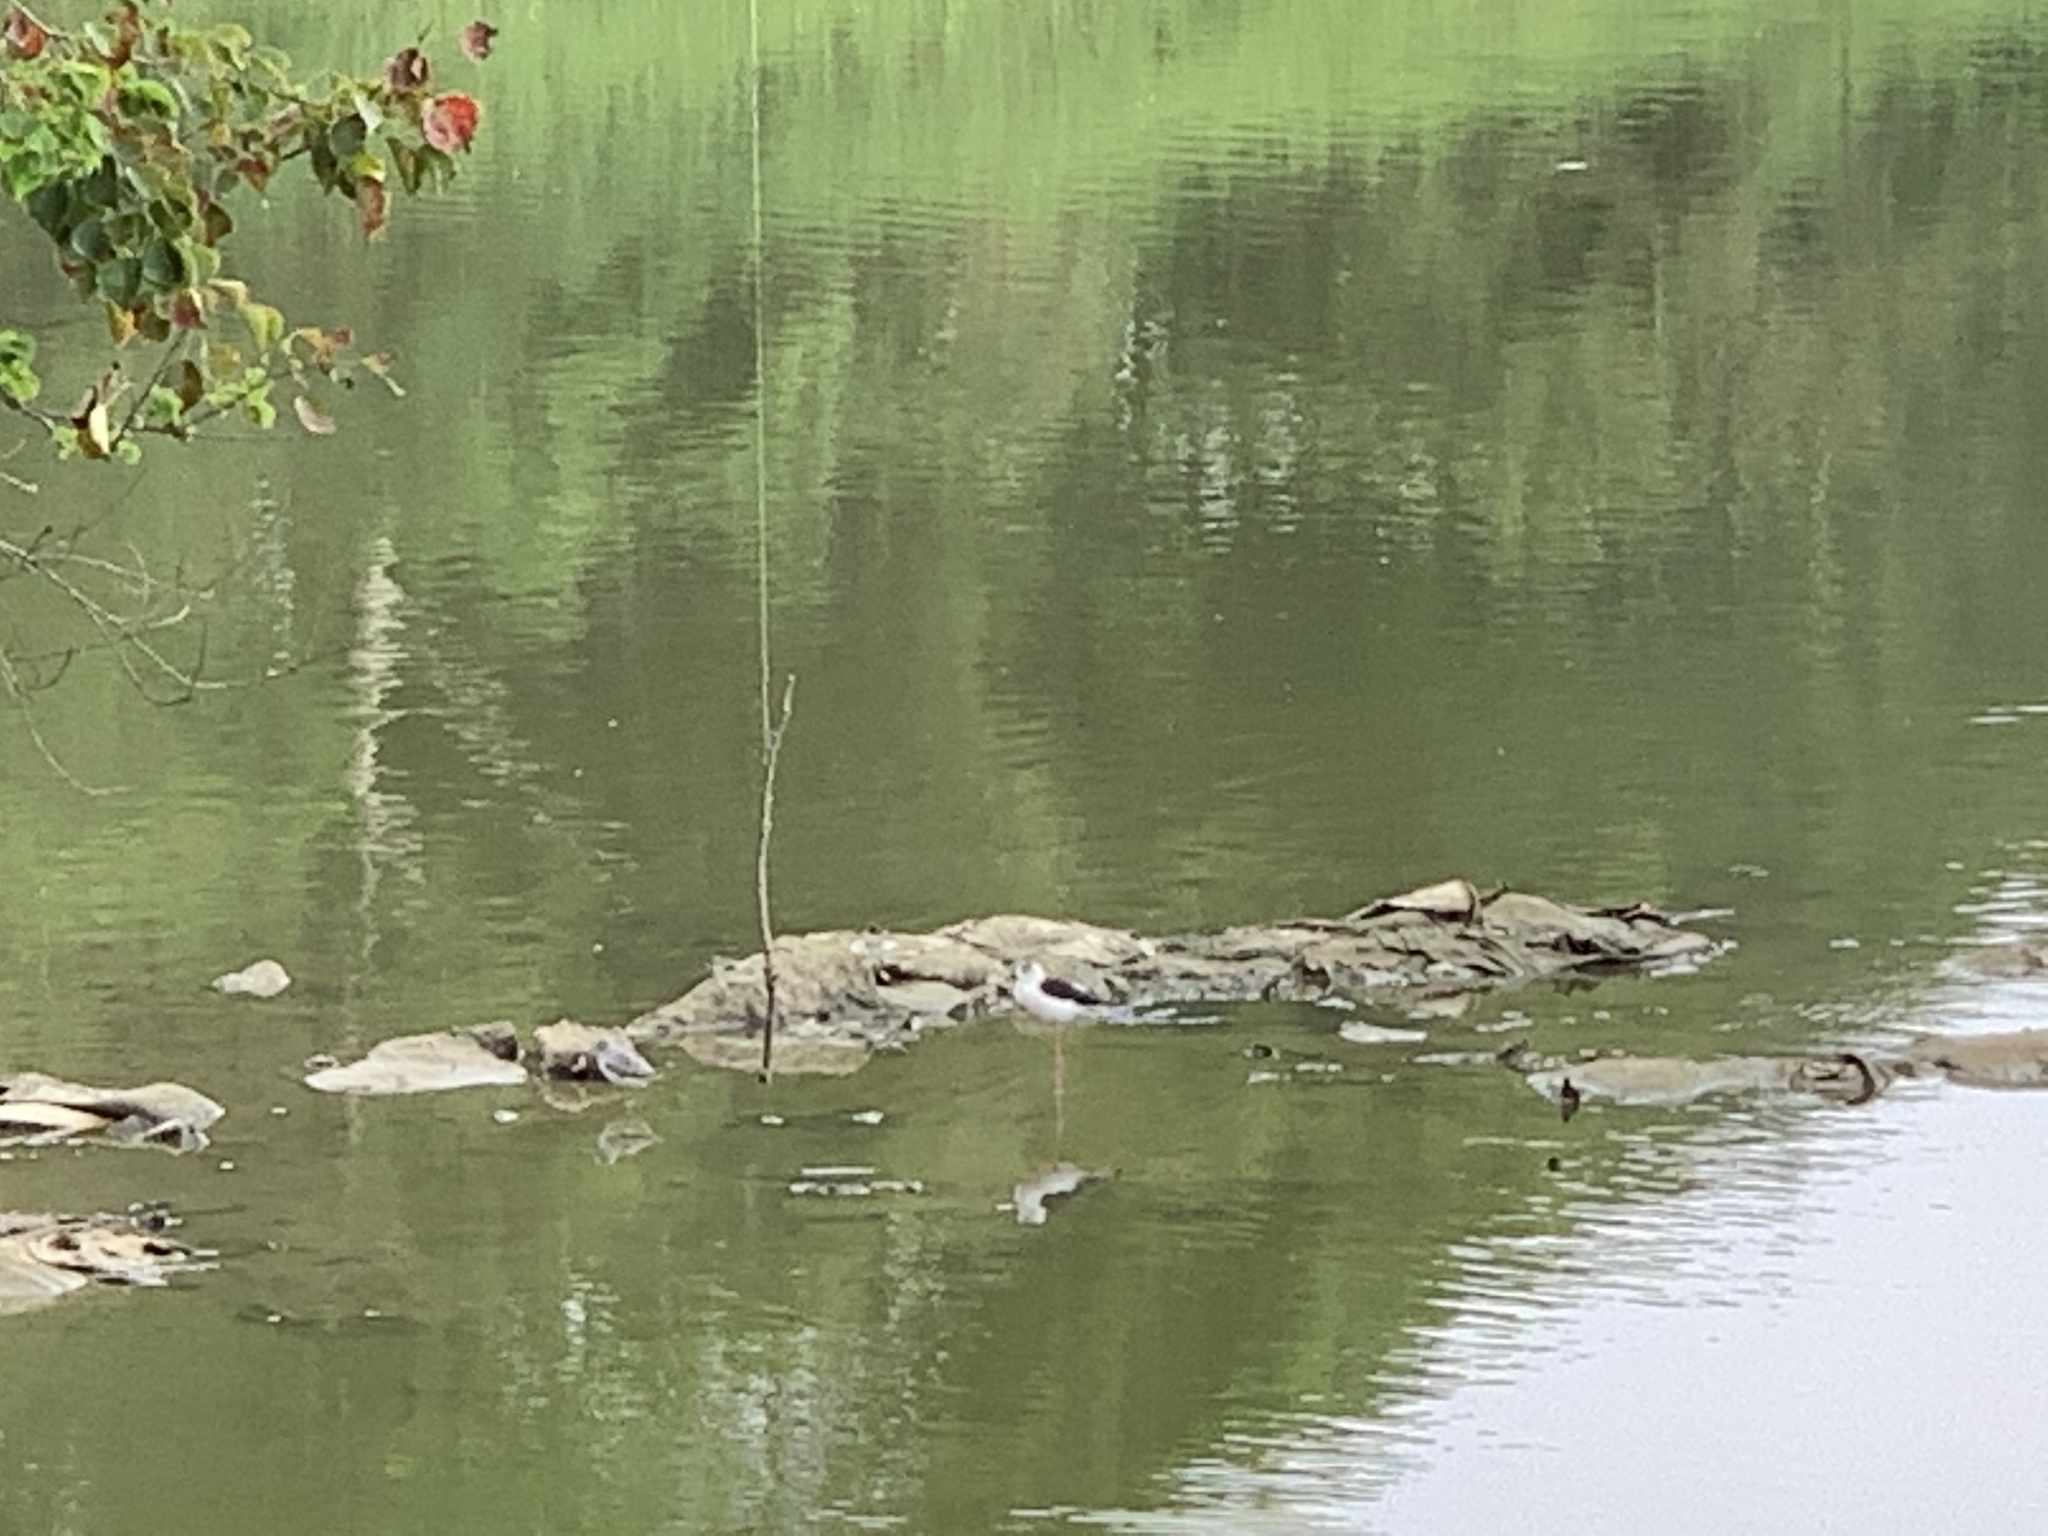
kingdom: Animalia
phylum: Chordata
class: Aves
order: Charadriiformes
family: Recurvirostridae
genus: Himantopus
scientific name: Himantopus himantopus
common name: Black-winged stilt
